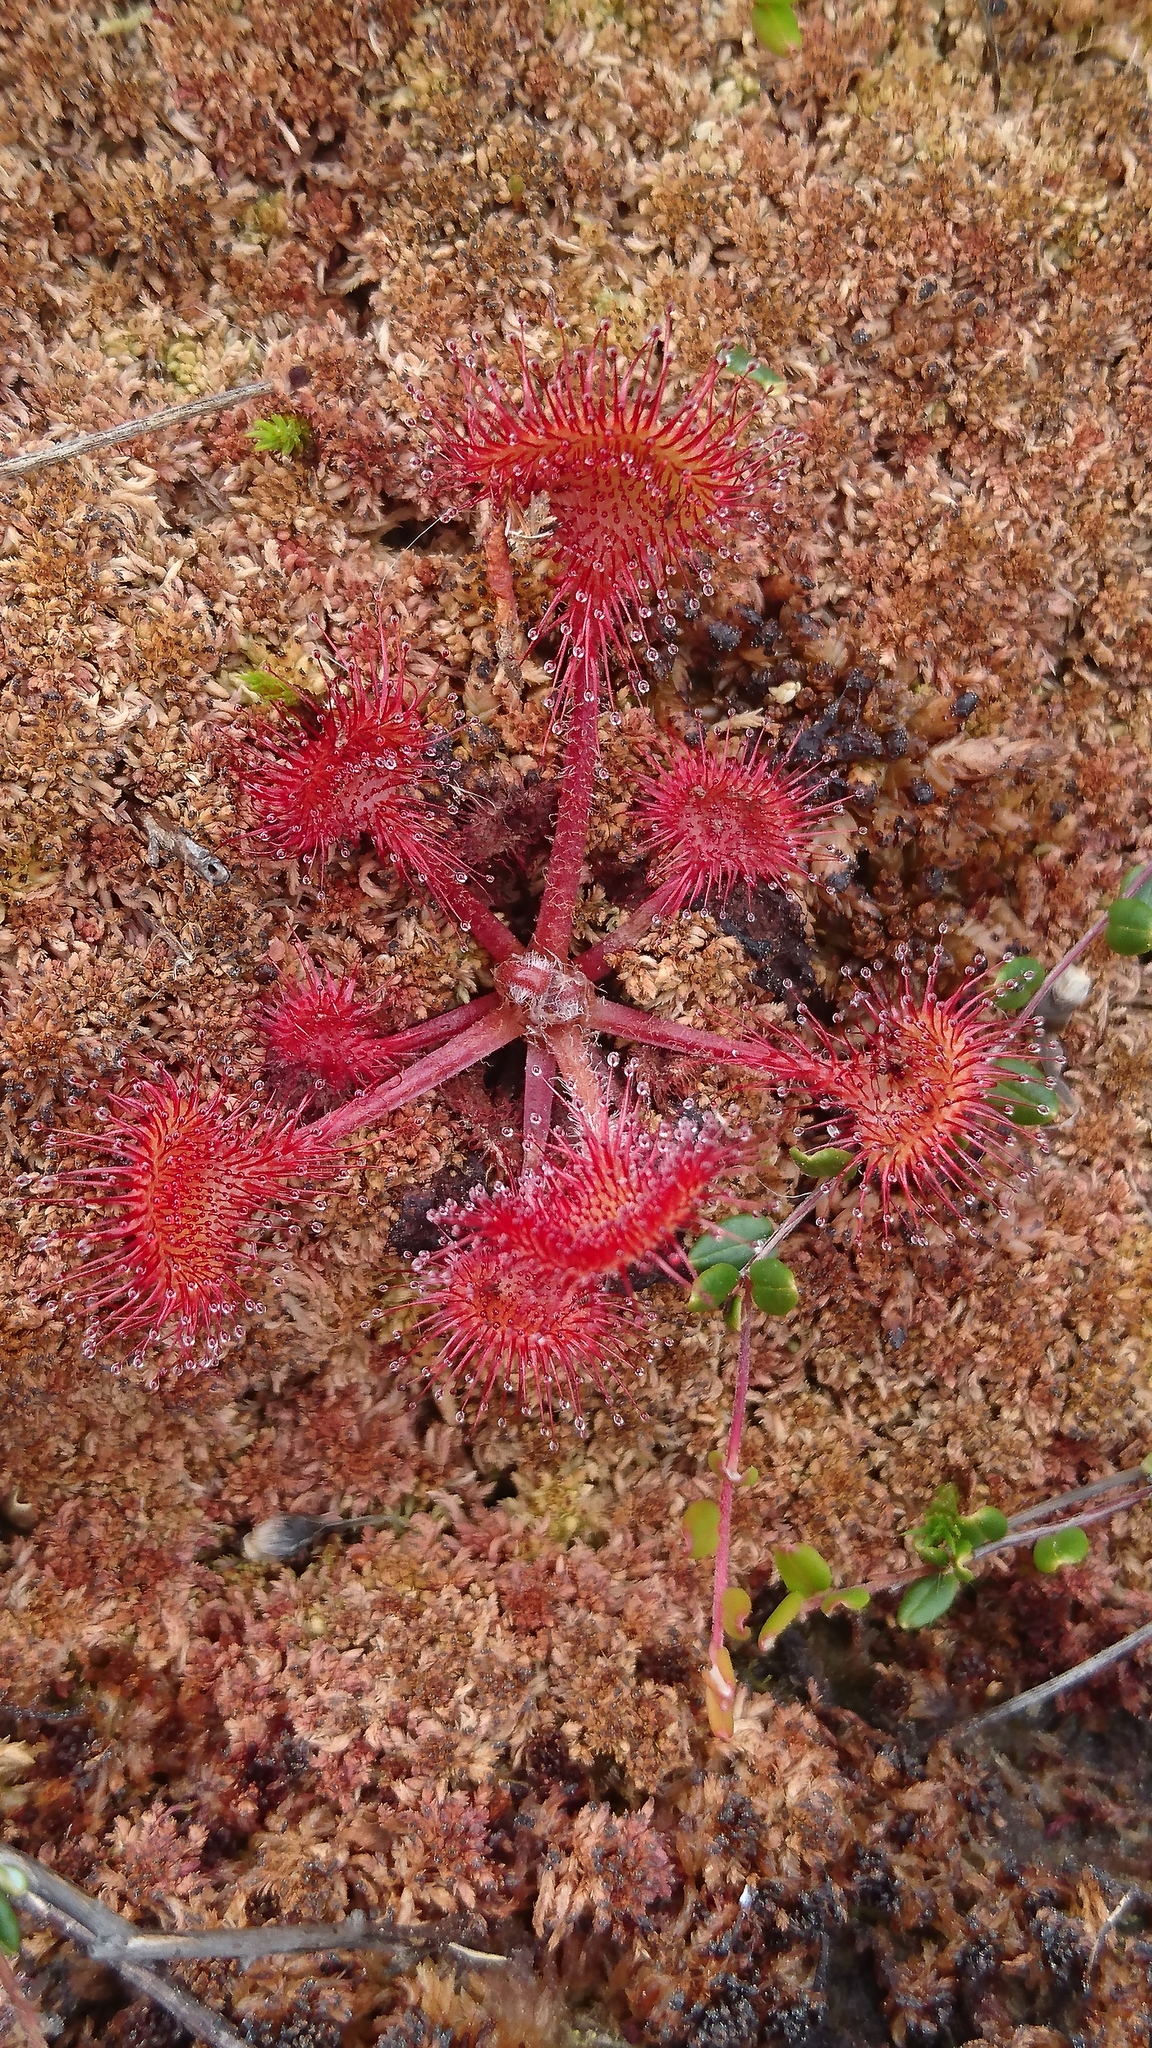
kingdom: Plantae
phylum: Tracheophyta
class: Magnoliopsida
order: Caryophyllales
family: Droseraceae
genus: Drosera
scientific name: Drosera rotundifolia
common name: Round-leaved sundew
